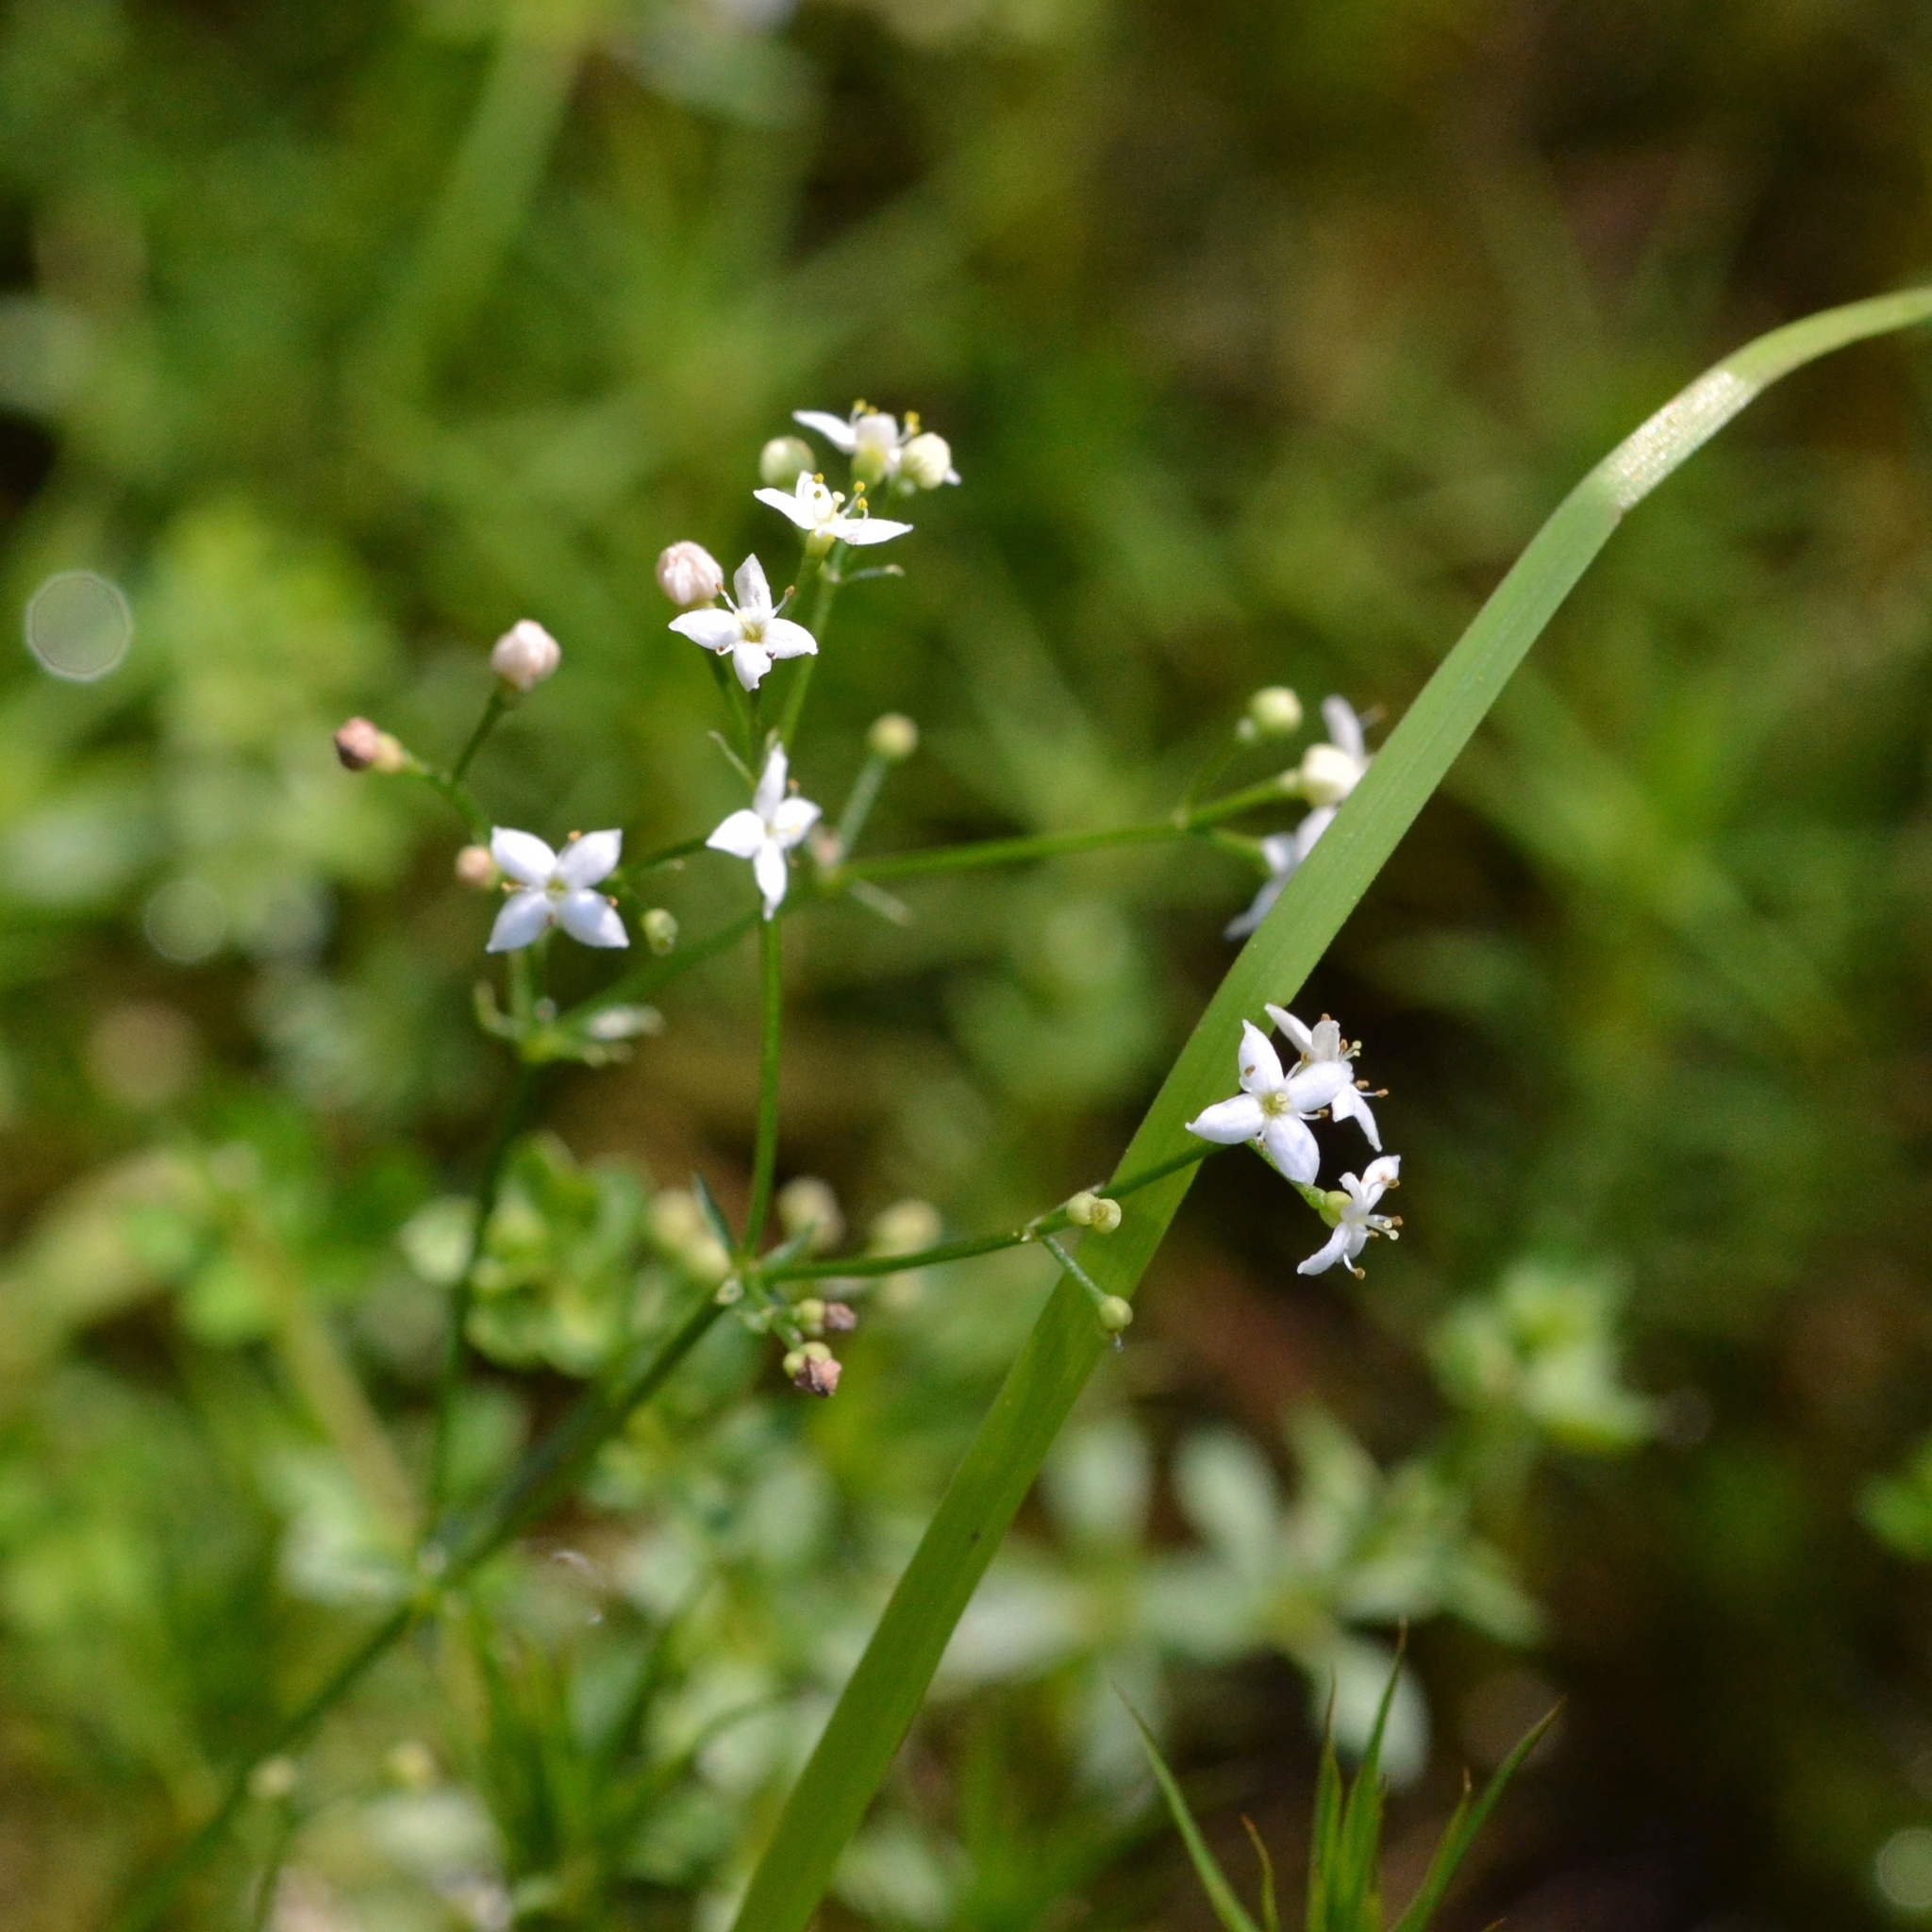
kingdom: Plantae
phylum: Tracheophyta
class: Magnoliopsida
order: Gentianales
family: Rubiaceae
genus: Galium
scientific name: Galium saxatile
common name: Heath bedstraw
